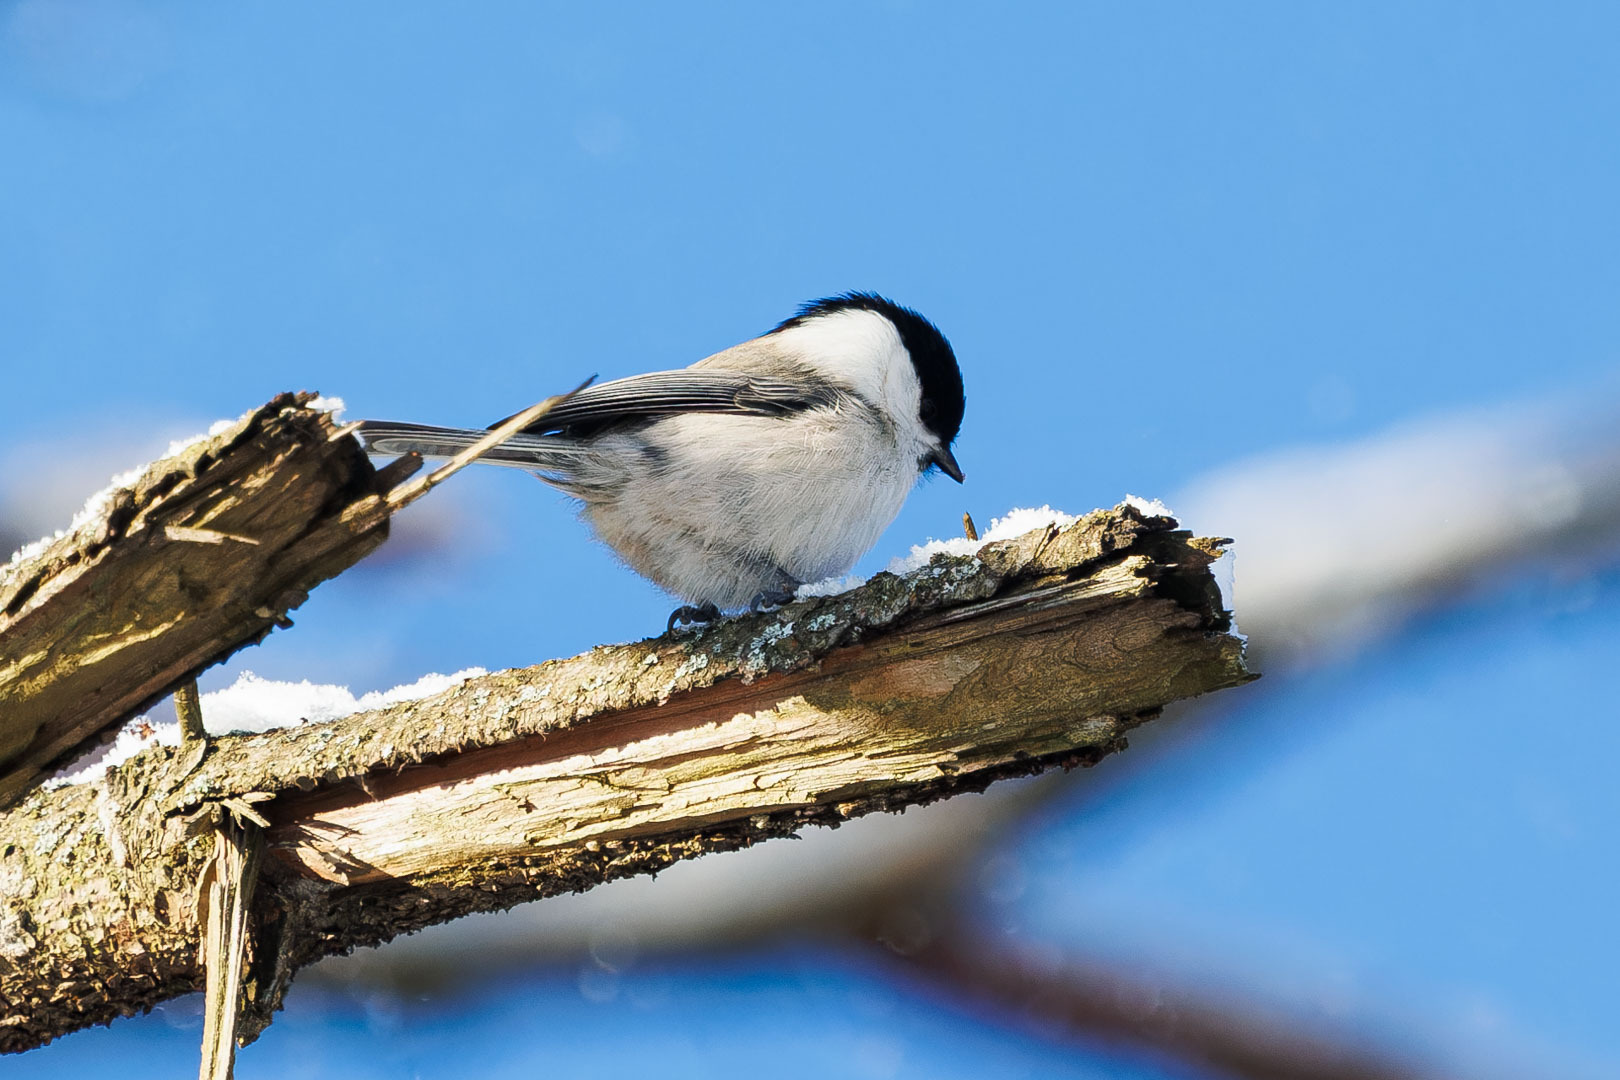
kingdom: Animalia
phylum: Chordata
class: Aves
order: Passeriformes
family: Paridae
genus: Poecile
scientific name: Poecile montanus
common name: Willow tit
